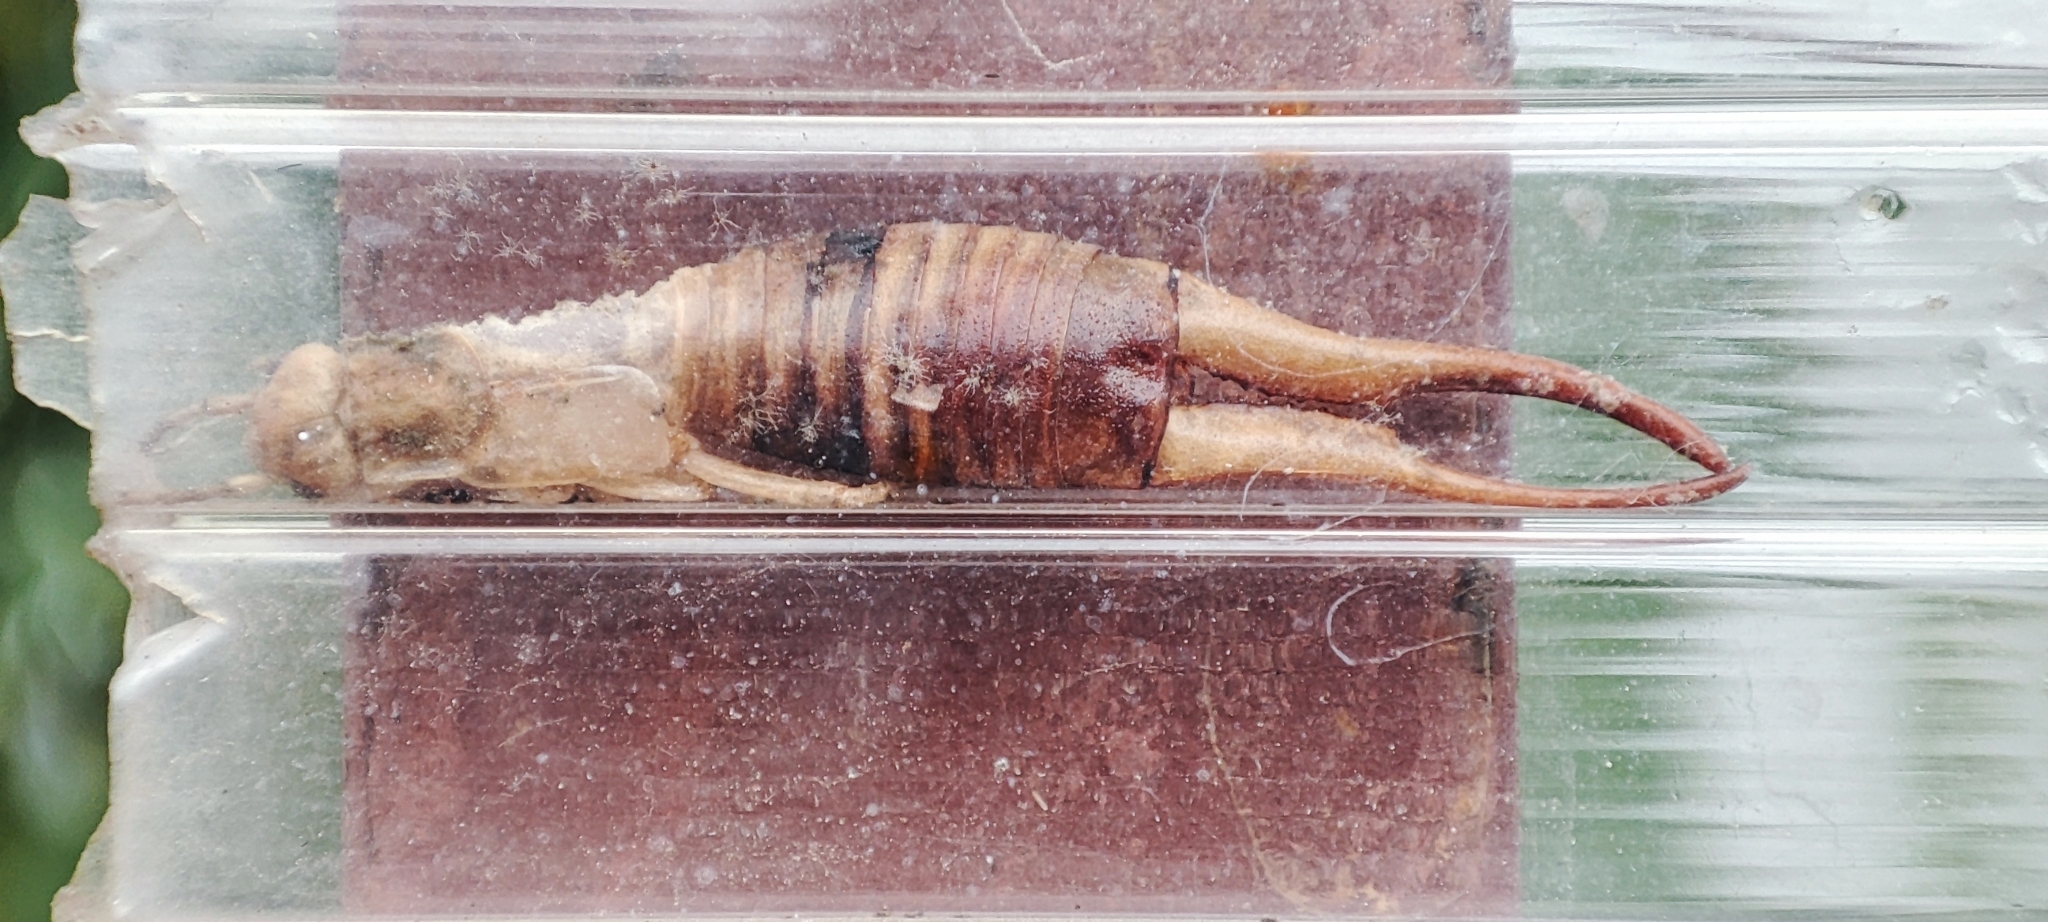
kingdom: Animalia
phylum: Arthropoda
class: Insecta
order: Dermaptera
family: Forficulidae
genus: Forficula
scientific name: Forficula tomis
